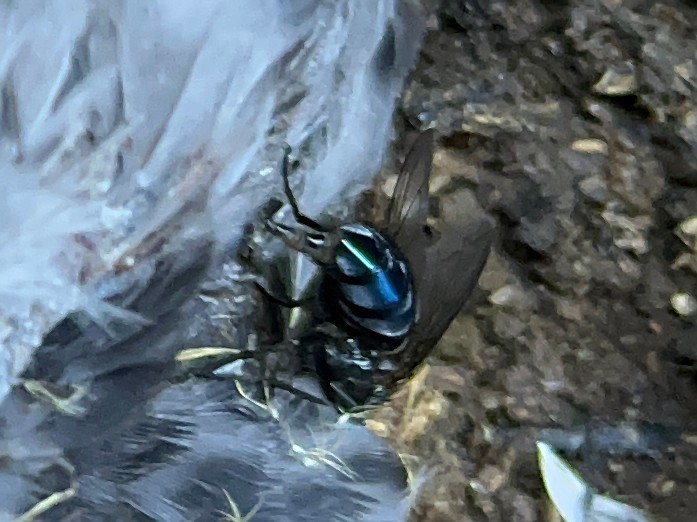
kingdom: Animalia
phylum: Arthropoda
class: Insecta
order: Diptera
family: Calliphoridae
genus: Calliphora
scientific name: Calliphora vicina
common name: Common blow flie
